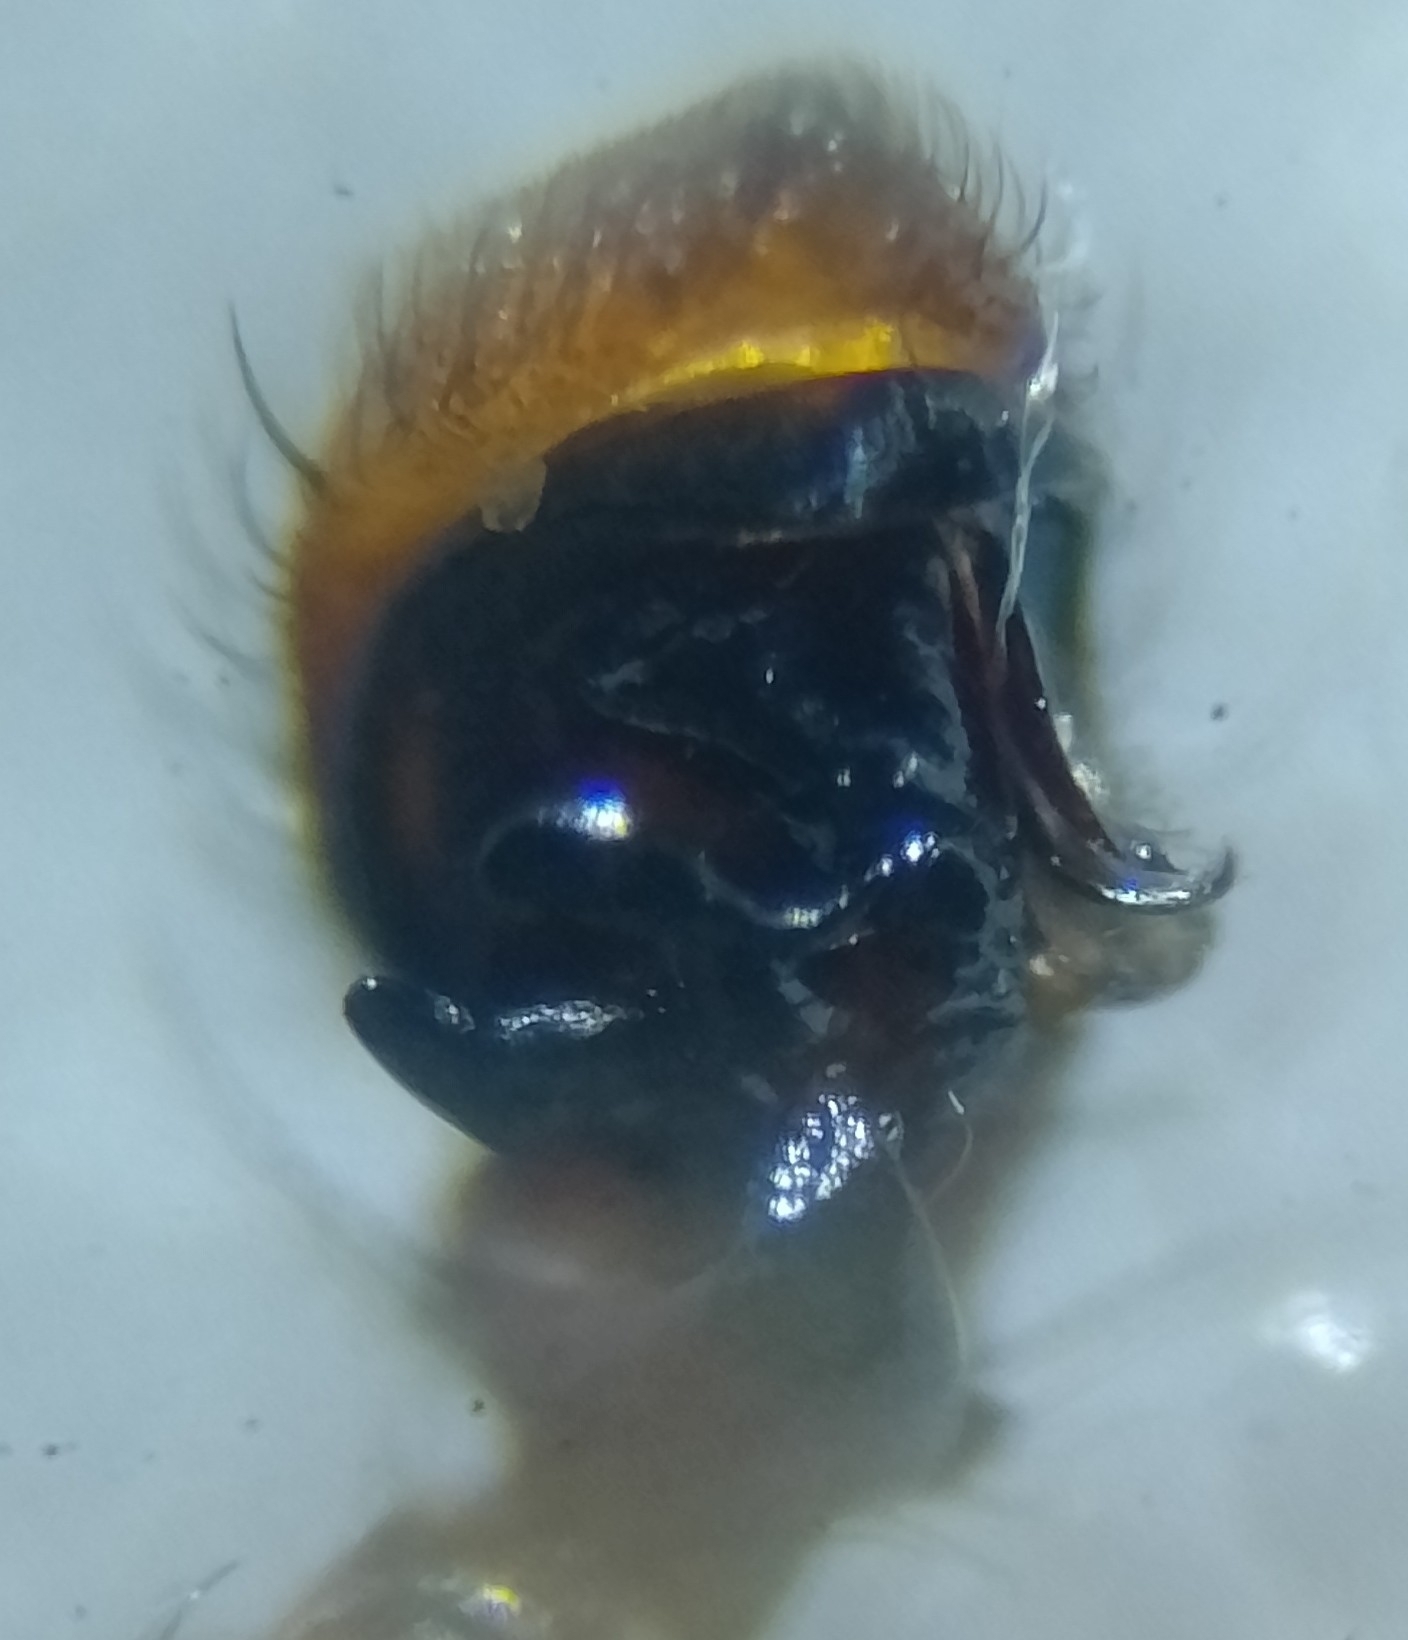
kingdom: Animalia
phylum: Arthropoda
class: Arachnida
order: Araneae
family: Thomisidae
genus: Xysticus
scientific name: Xysticus kochi
